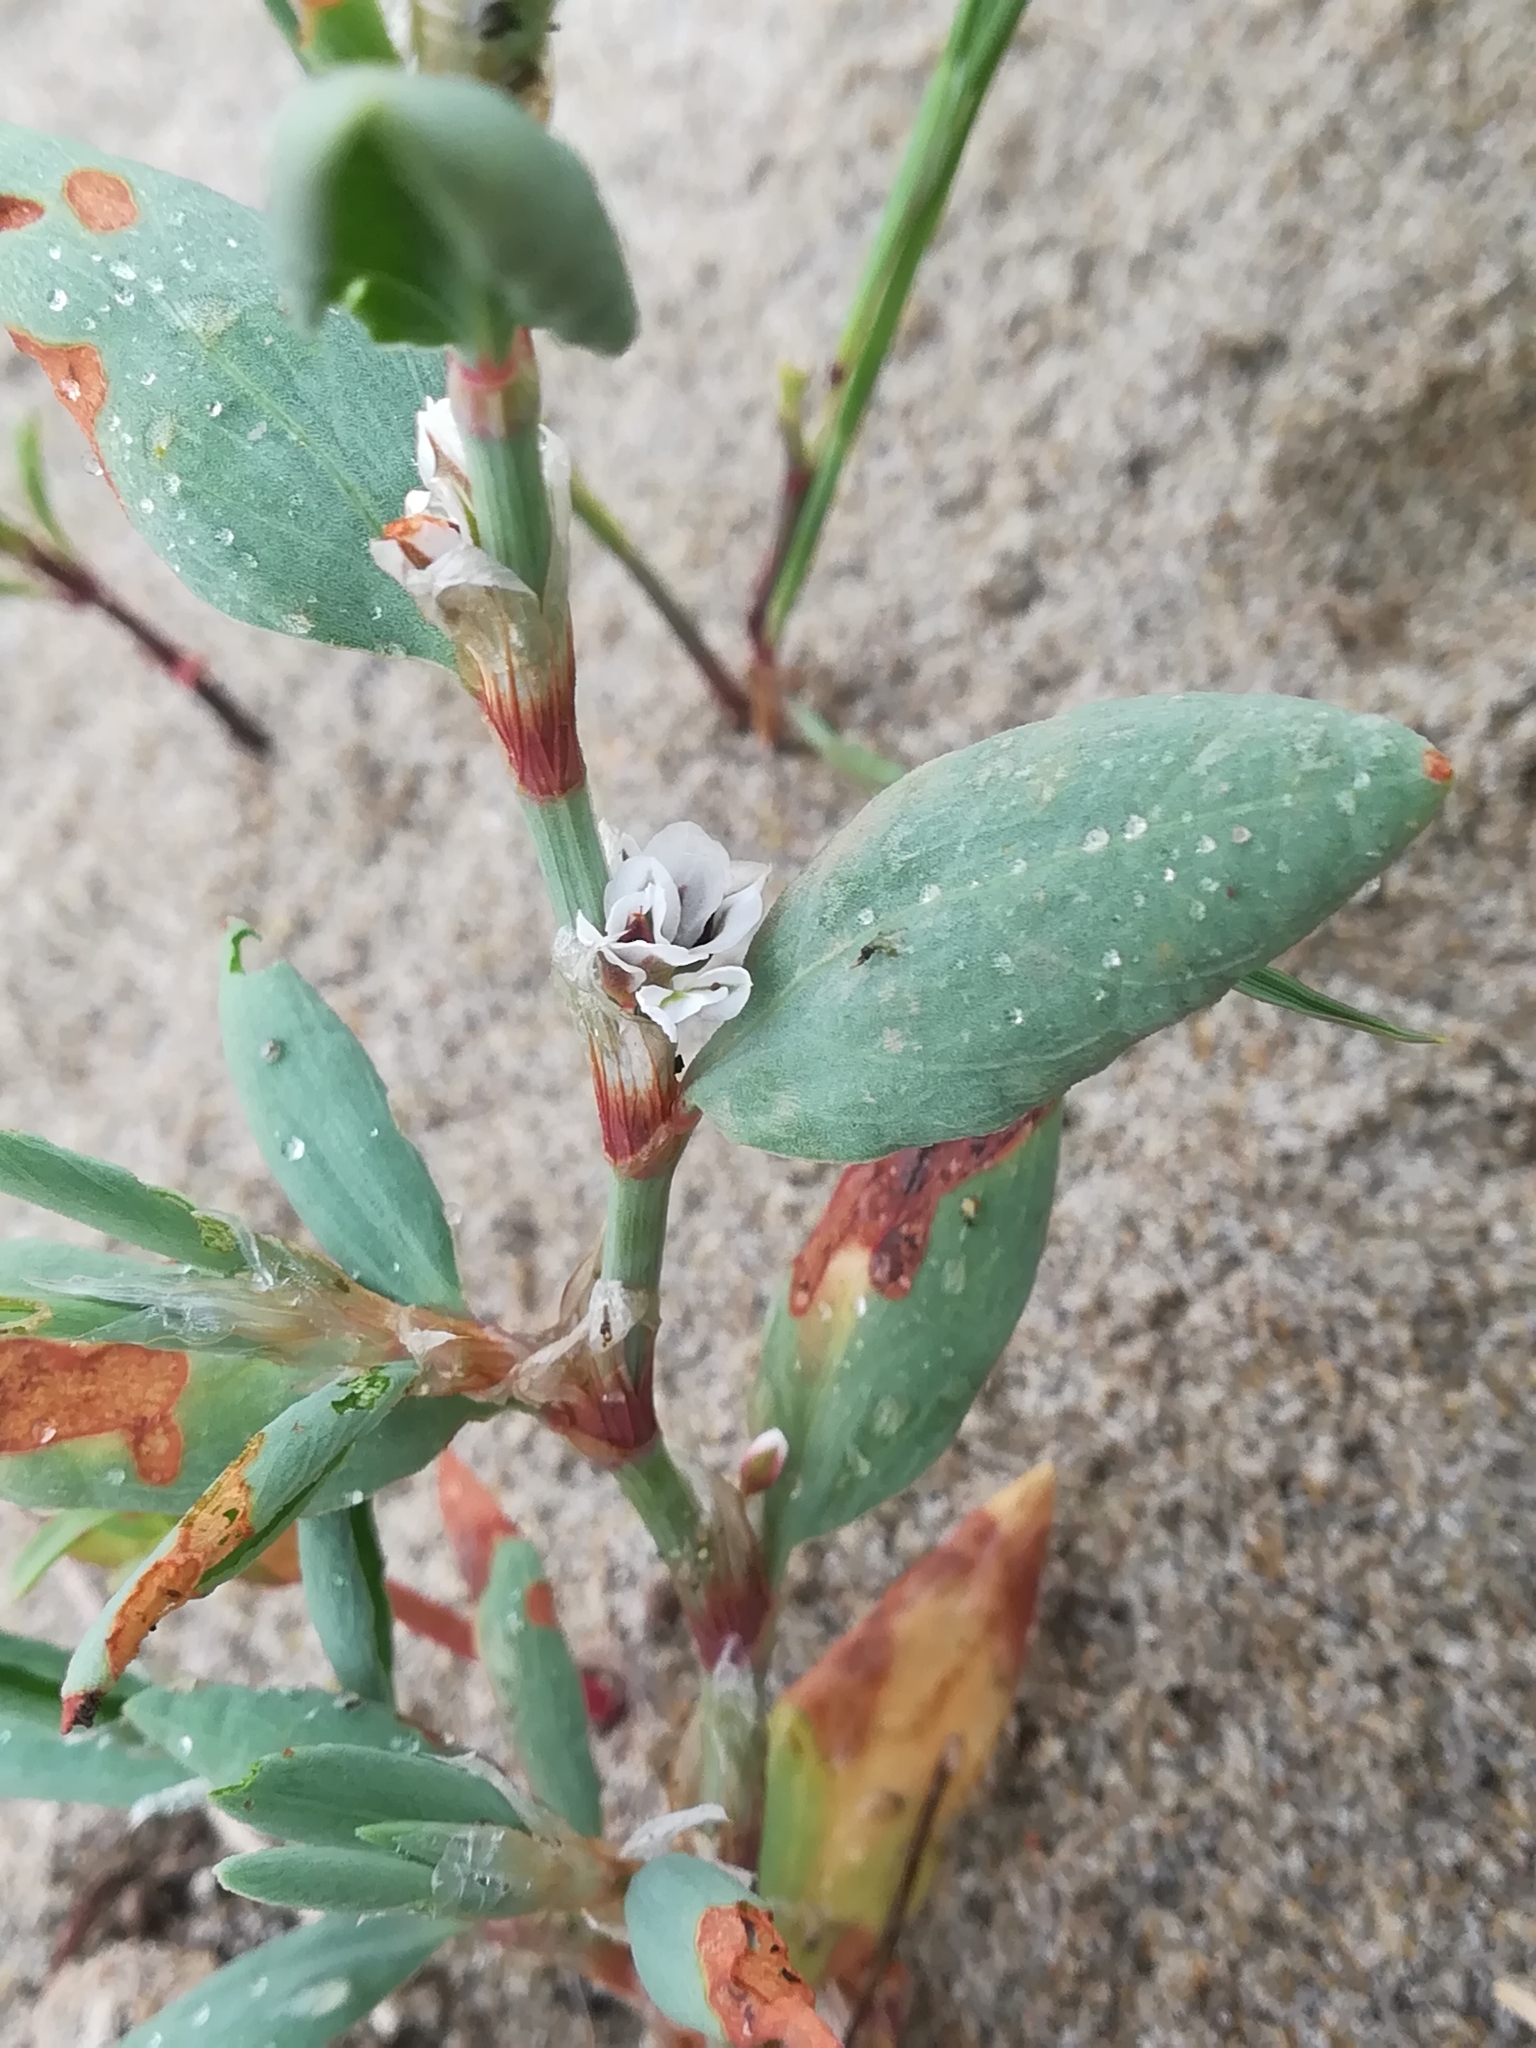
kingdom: Plantae
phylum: Tracheophyta
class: Magnoliopsida
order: Caryophyllales
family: Polygonaceae
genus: Polygonum
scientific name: Polygonum maritimum
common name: Sea knotgrass
